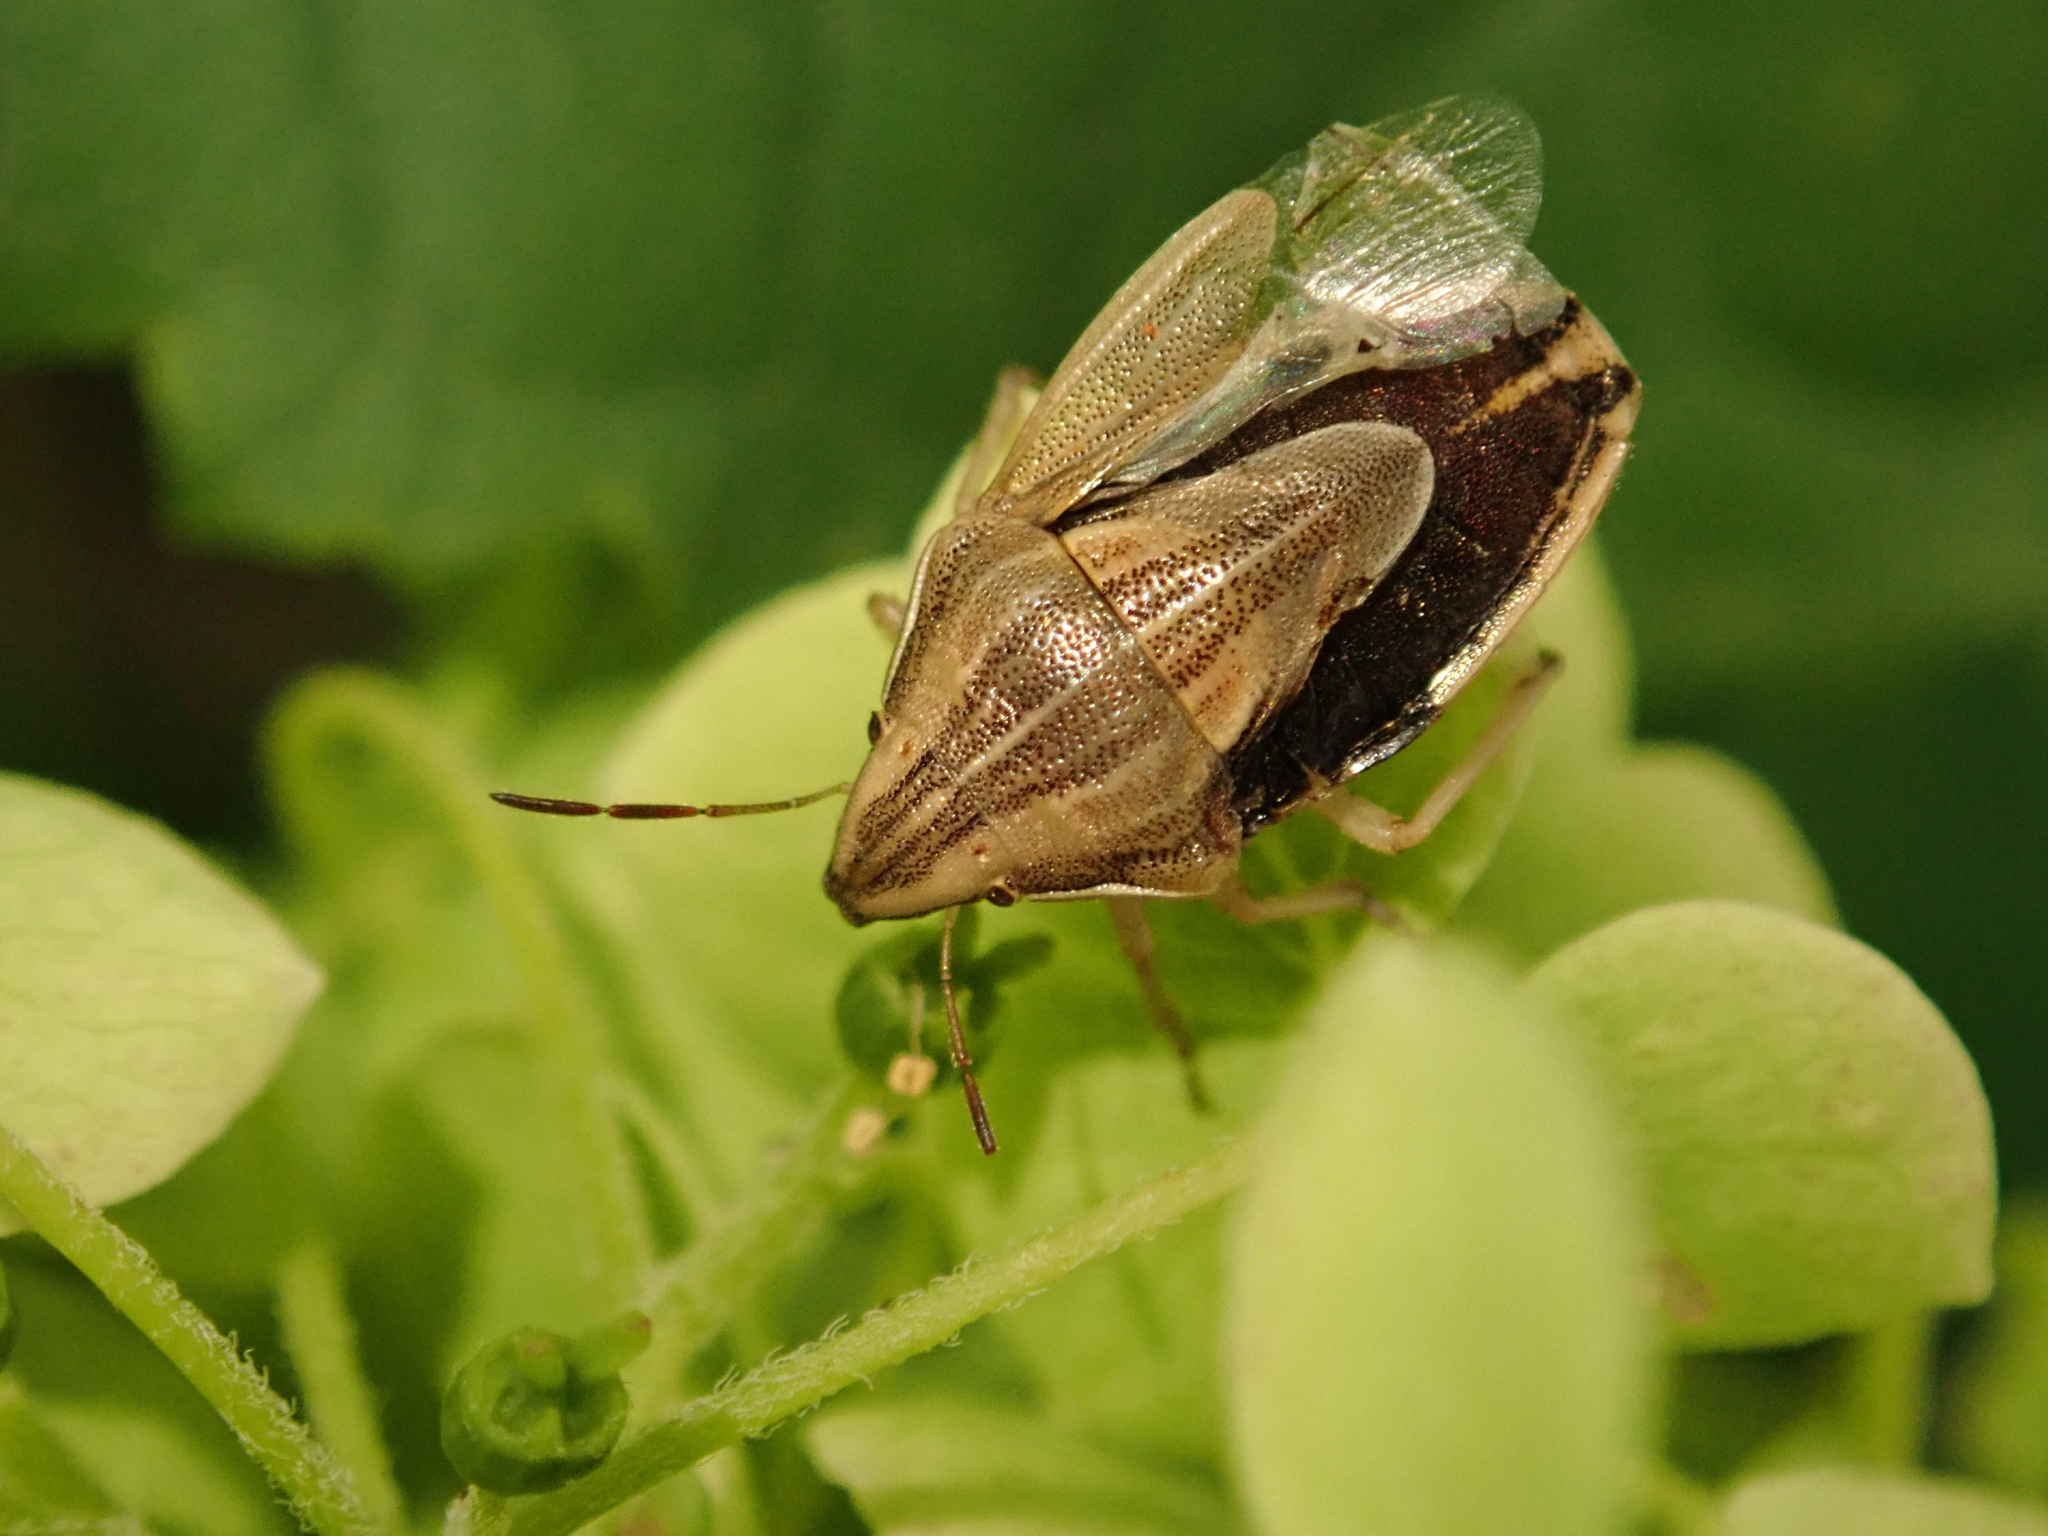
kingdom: Animalia
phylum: Arthropoda
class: Insecta
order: Hemiptera
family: Pentatomidae
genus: Aelia
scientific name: Aelia acuminata
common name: Bishop's mitre
